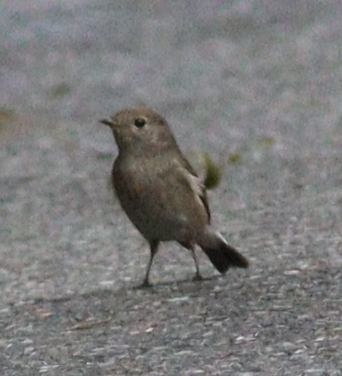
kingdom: Animalia
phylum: Chordata
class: Aves
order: Passeriformes
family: Muscicapidae
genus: Ficedula
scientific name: Ficedula albicilla
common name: Taiga flycatcher
